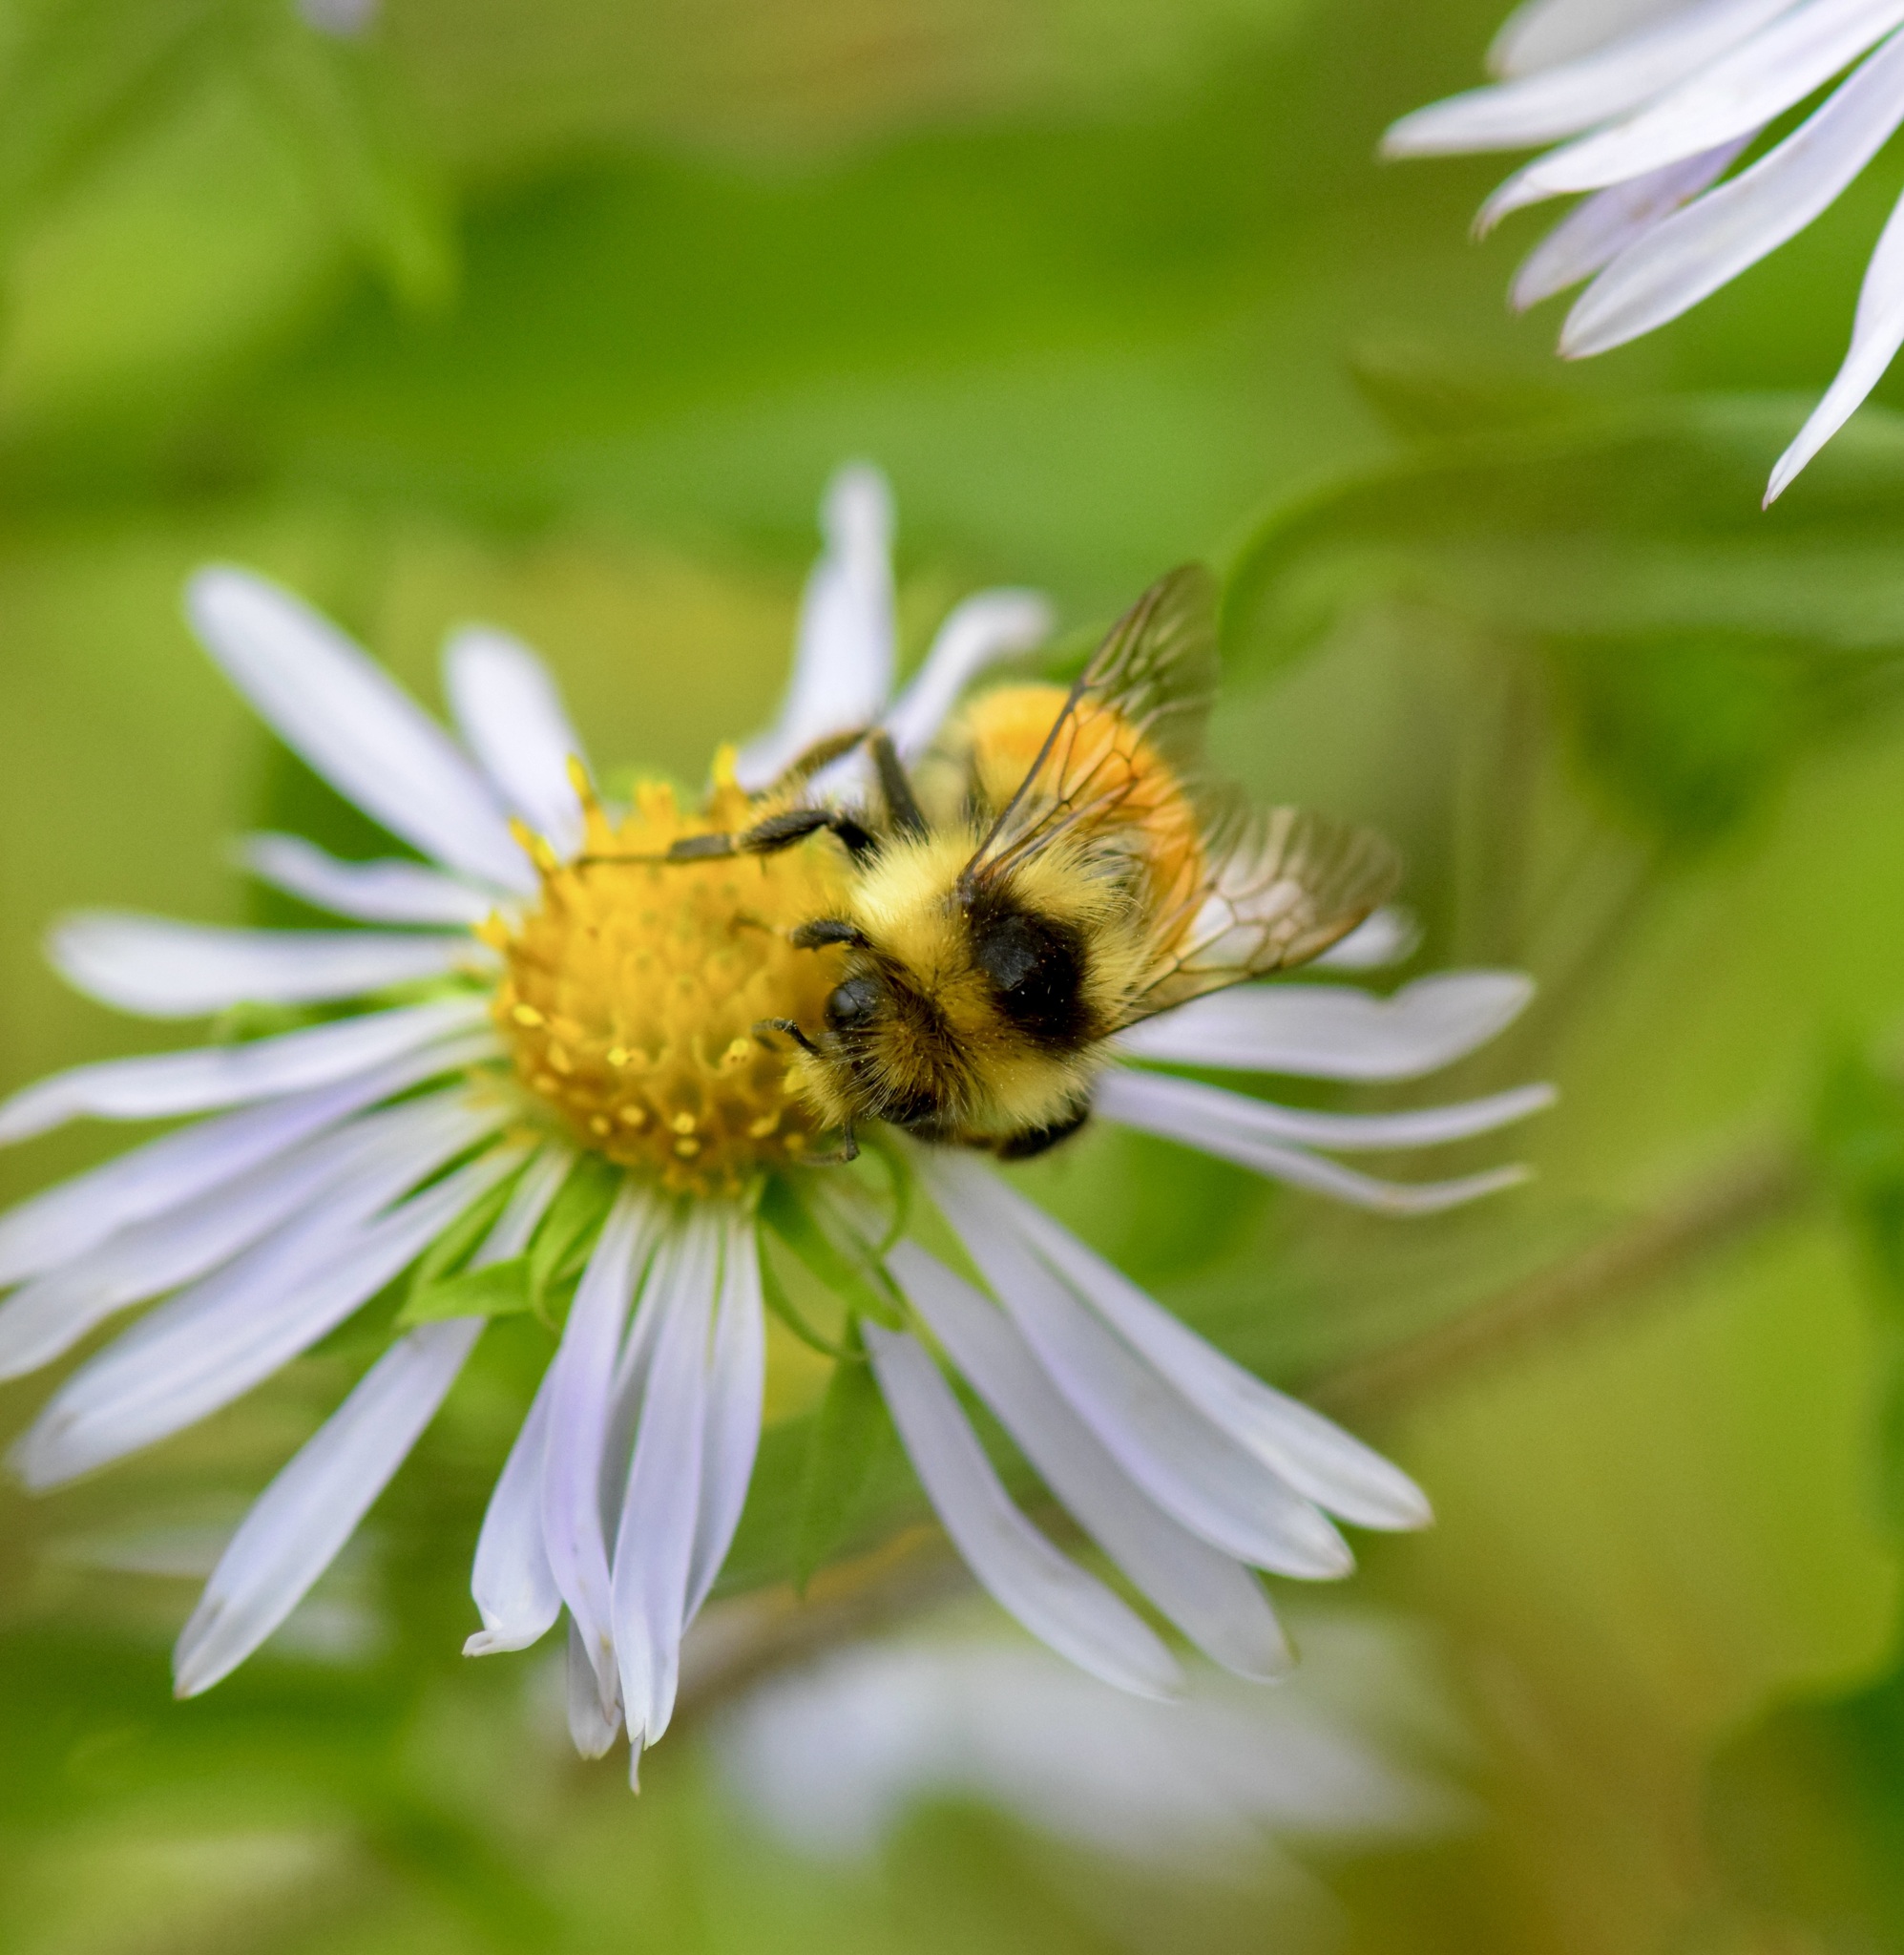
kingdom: Animalia
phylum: Arthropoda
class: Insecta
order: Hymenoptera
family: Apidae
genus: Bombus
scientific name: Bombus ternarius
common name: Tri-colored bumble bee
